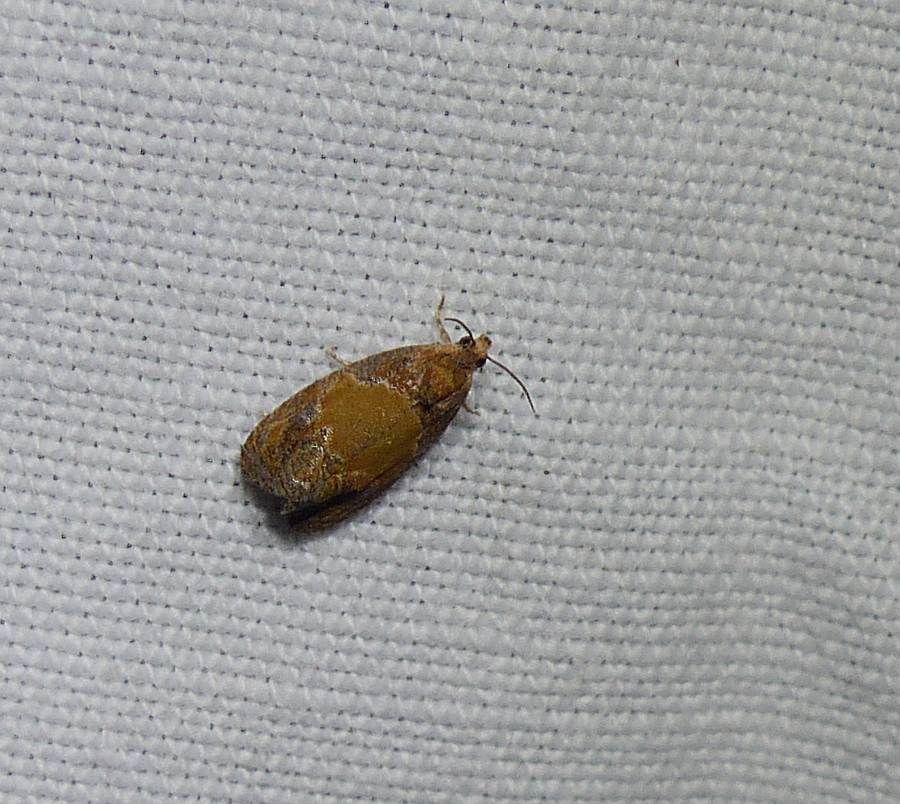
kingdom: Animalia
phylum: Arthropoda
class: Insecta
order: Lepidoptera
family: Tortricidae
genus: Olethreutes
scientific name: Olethreutes osmundana
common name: Fern olethreutes moth
